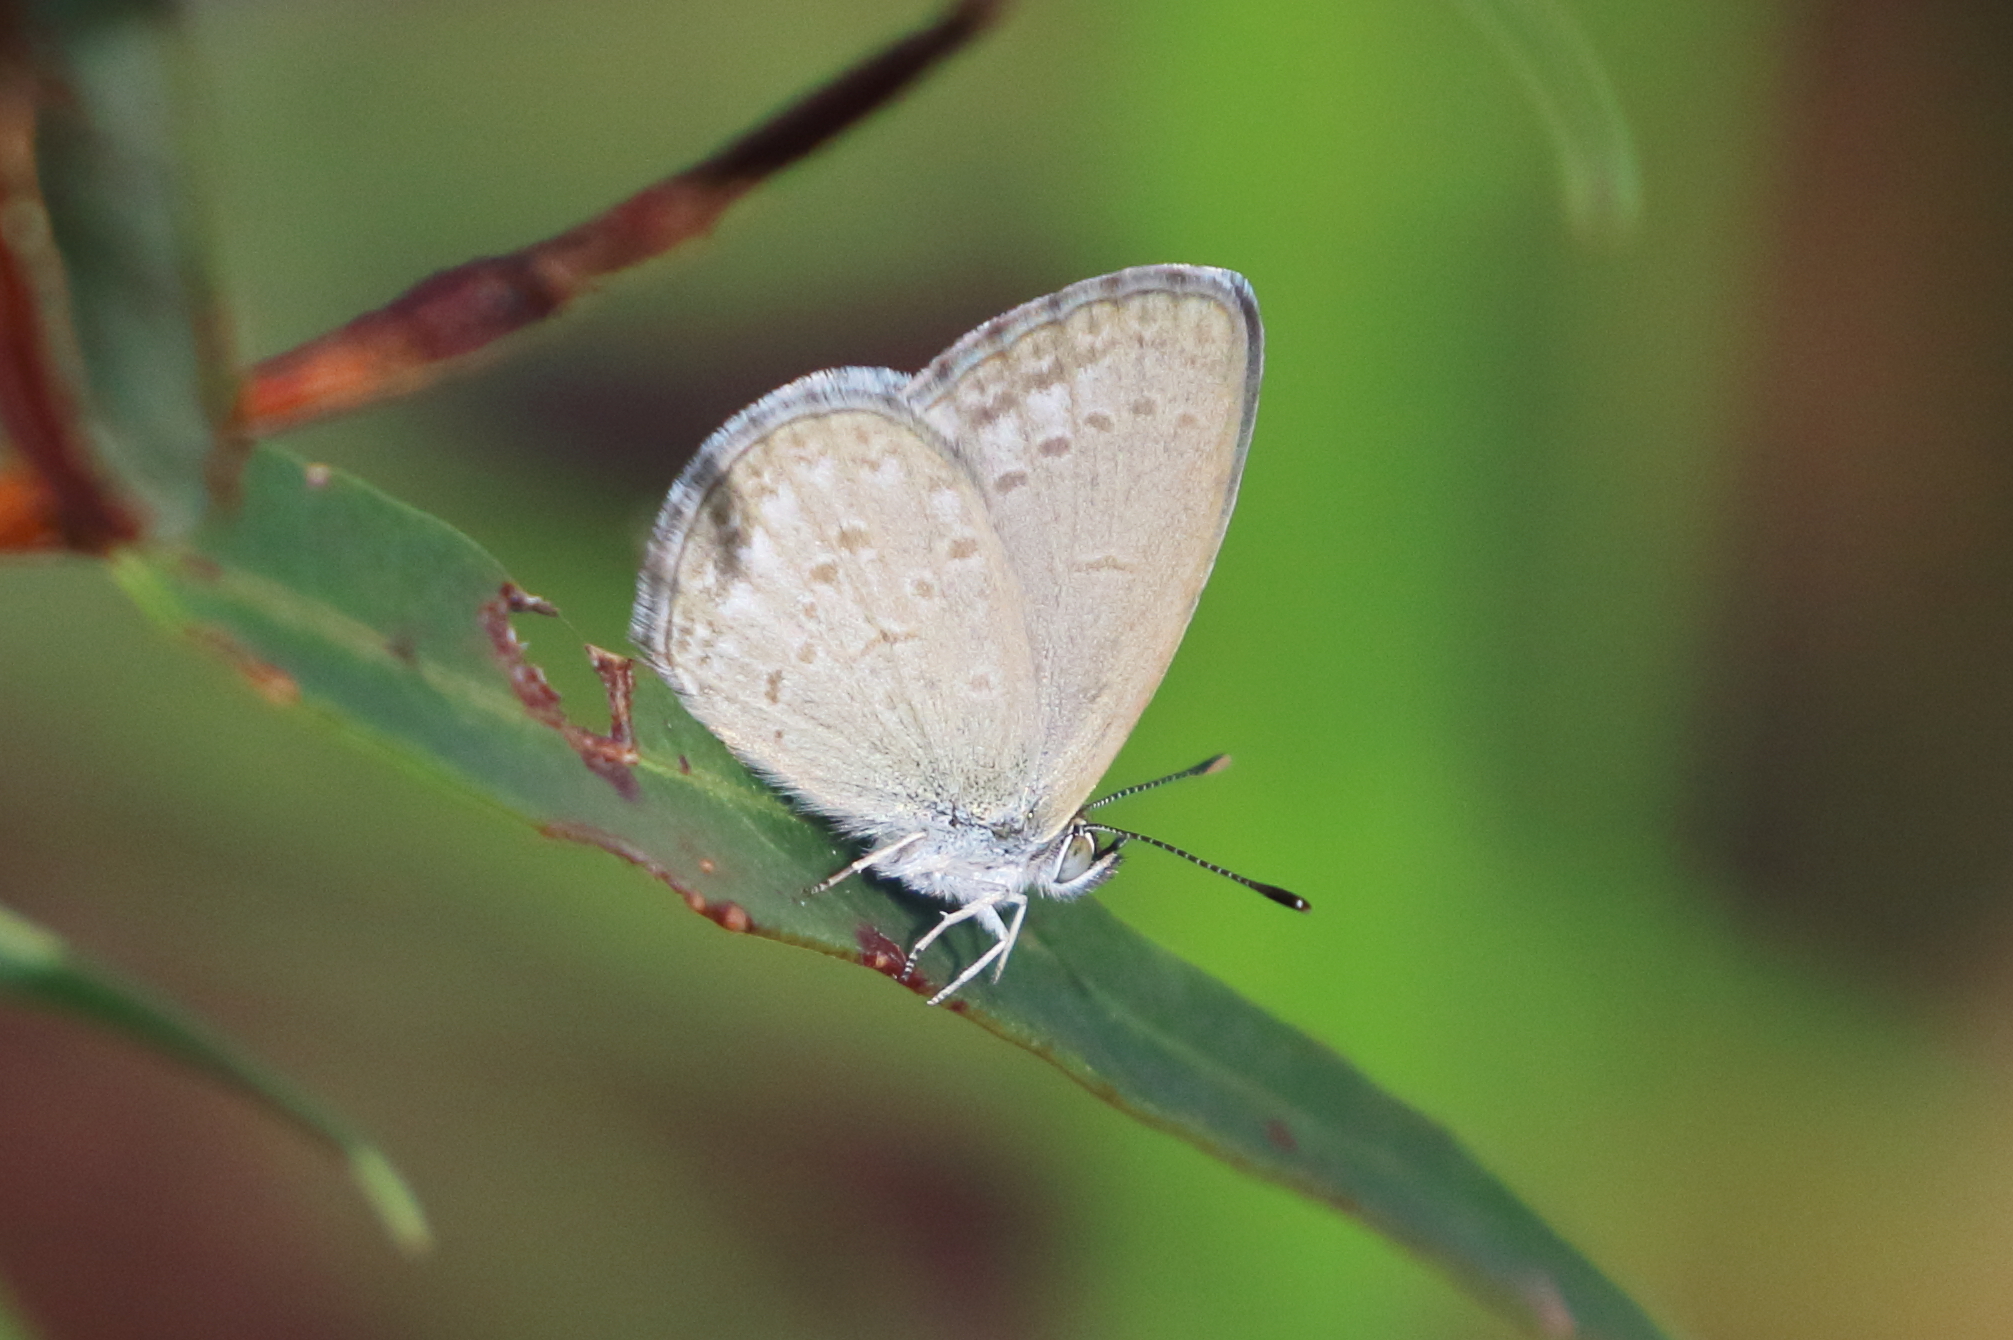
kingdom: Animalia
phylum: Arthropoda
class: Insecta
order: Lepidoptera
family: Lycaenidae
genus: Zizina
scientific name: Zizina labradus
